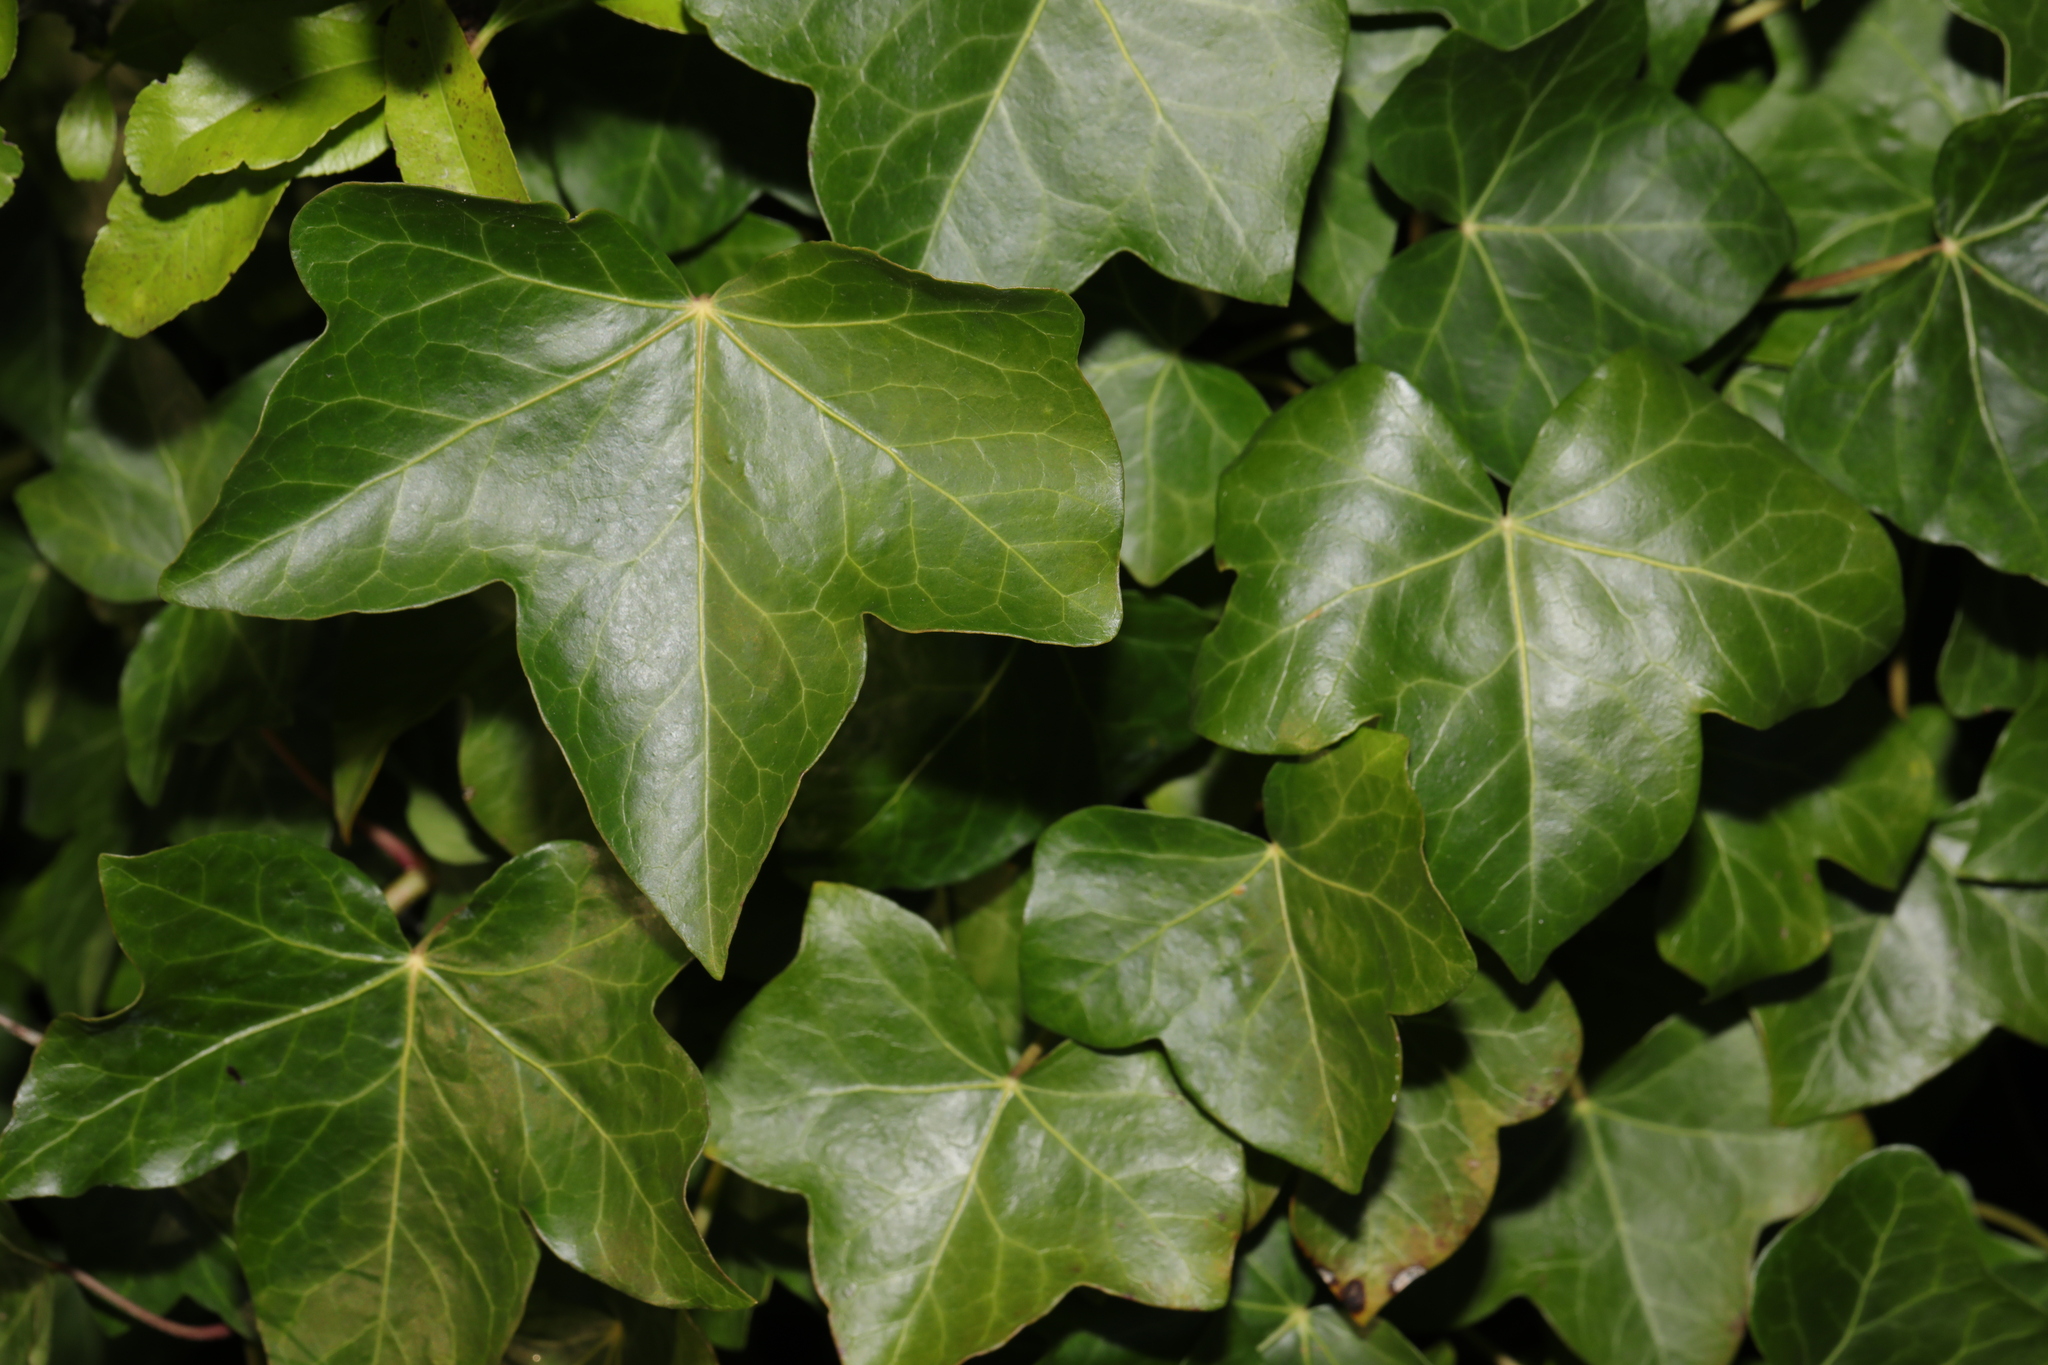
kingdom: Plantae
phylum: Tracheophyta
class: Magnoliopsida
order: Apiales
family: Araliaceae
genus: Hedera
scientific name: Hedera helix
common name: Ivy
